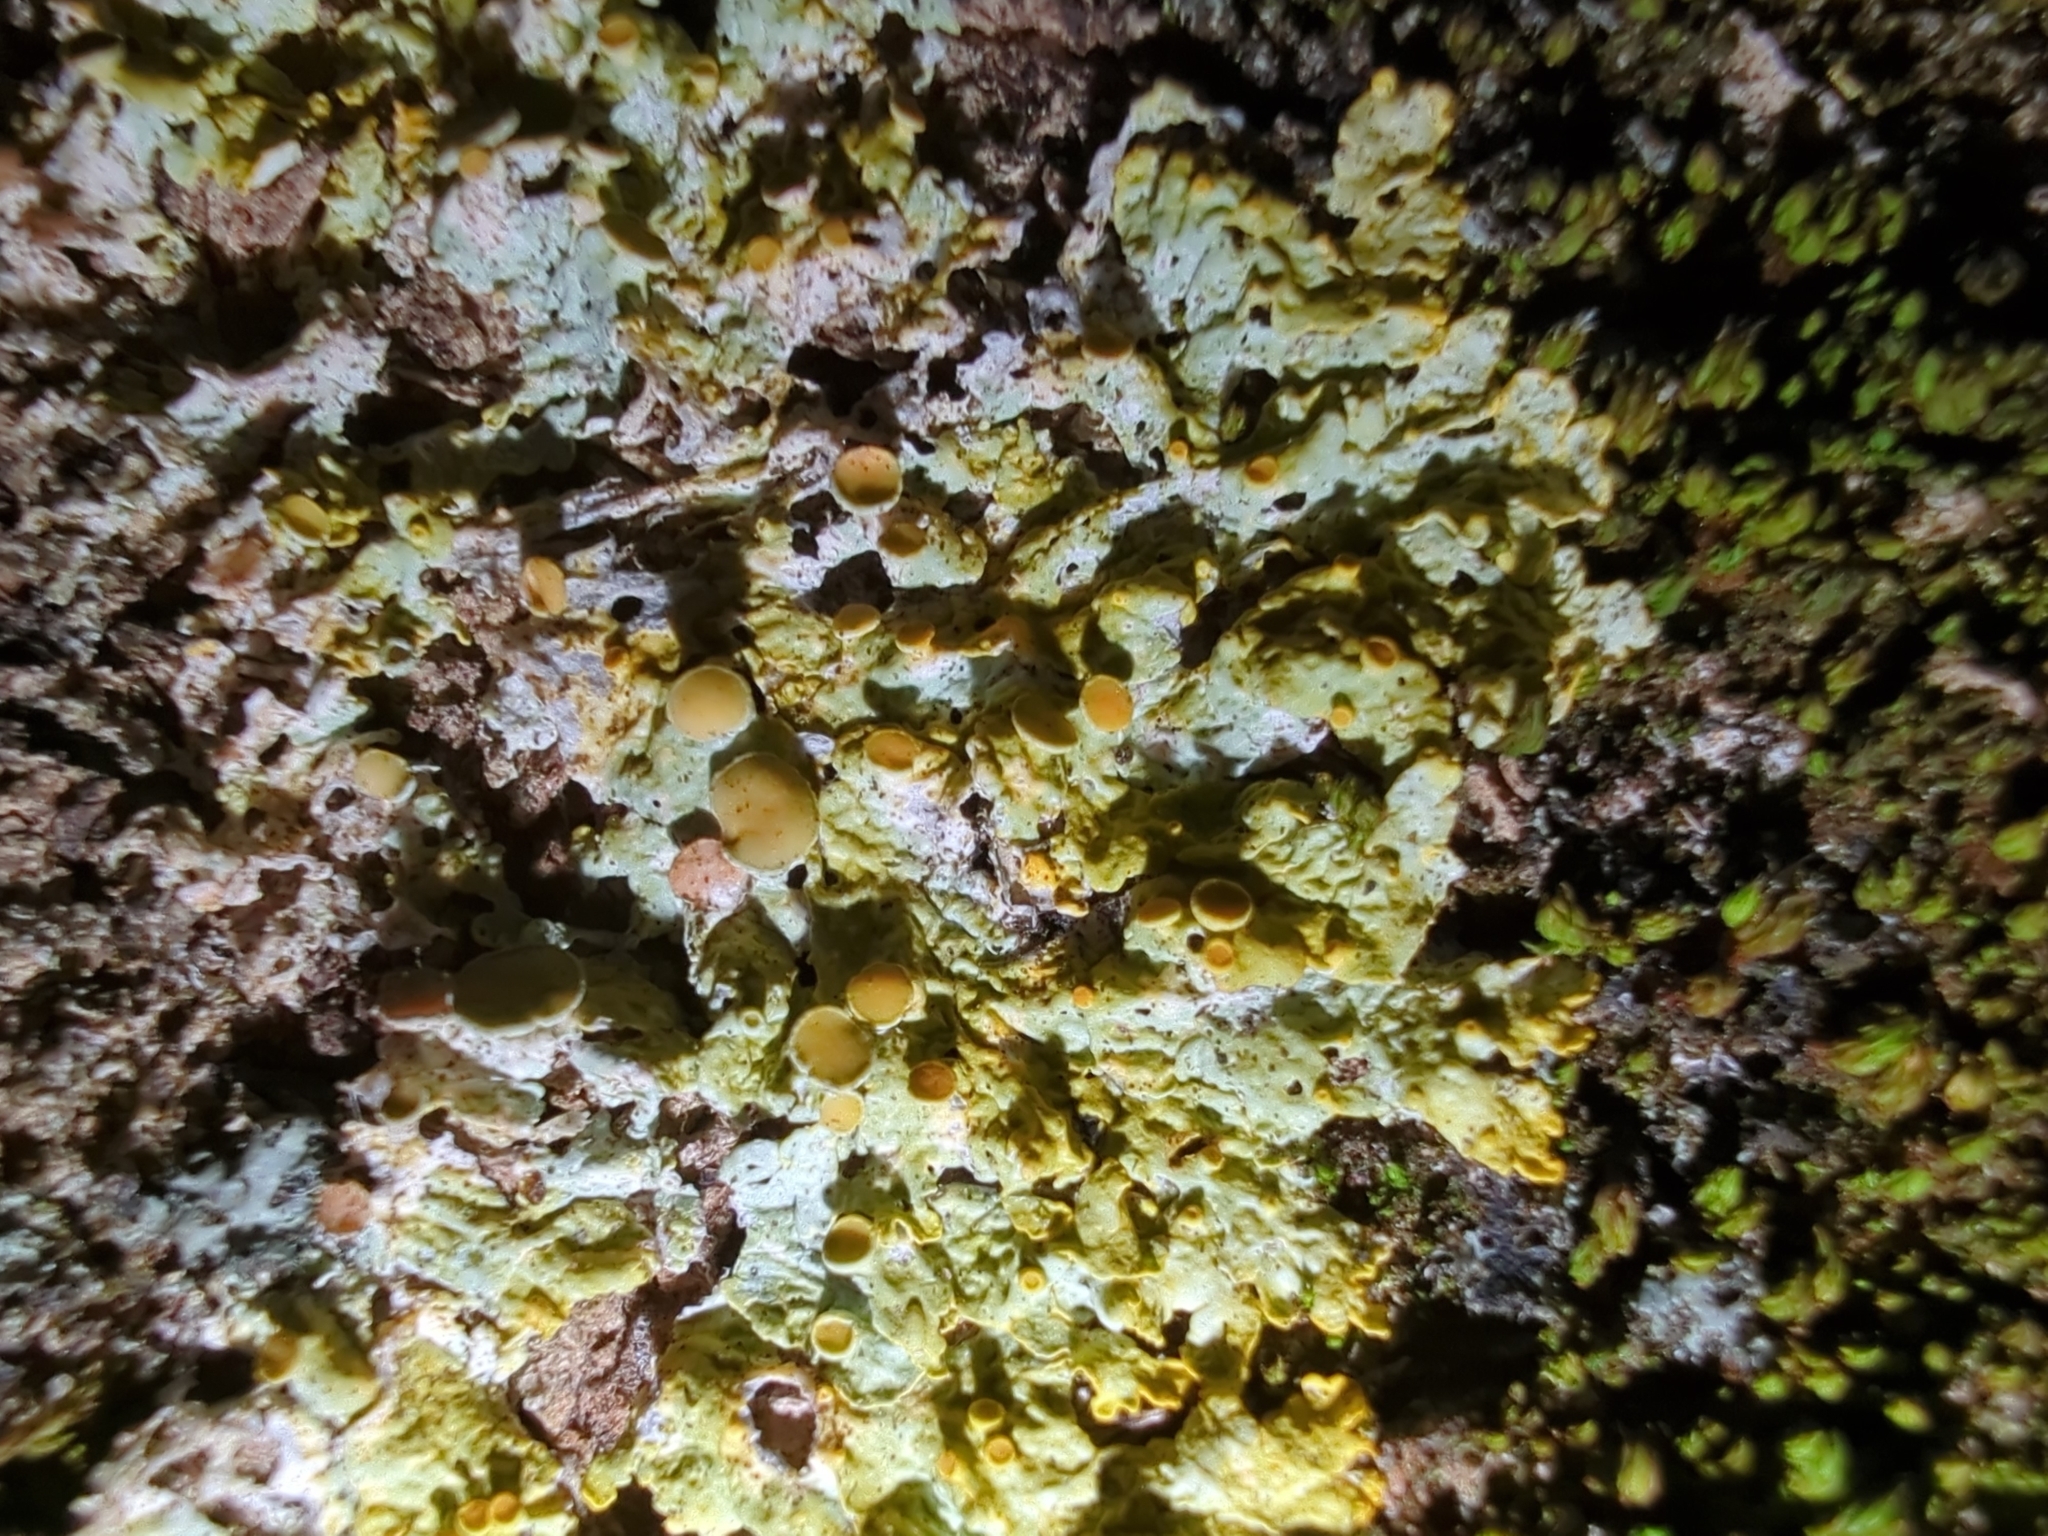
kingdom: Fungi
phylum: Ascomycota
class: Lecanoromycetes
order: Teloschistales
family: Teloschistaceae
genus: Xanthoria
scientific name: Xanthoria parietina
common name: Common orange lichen
